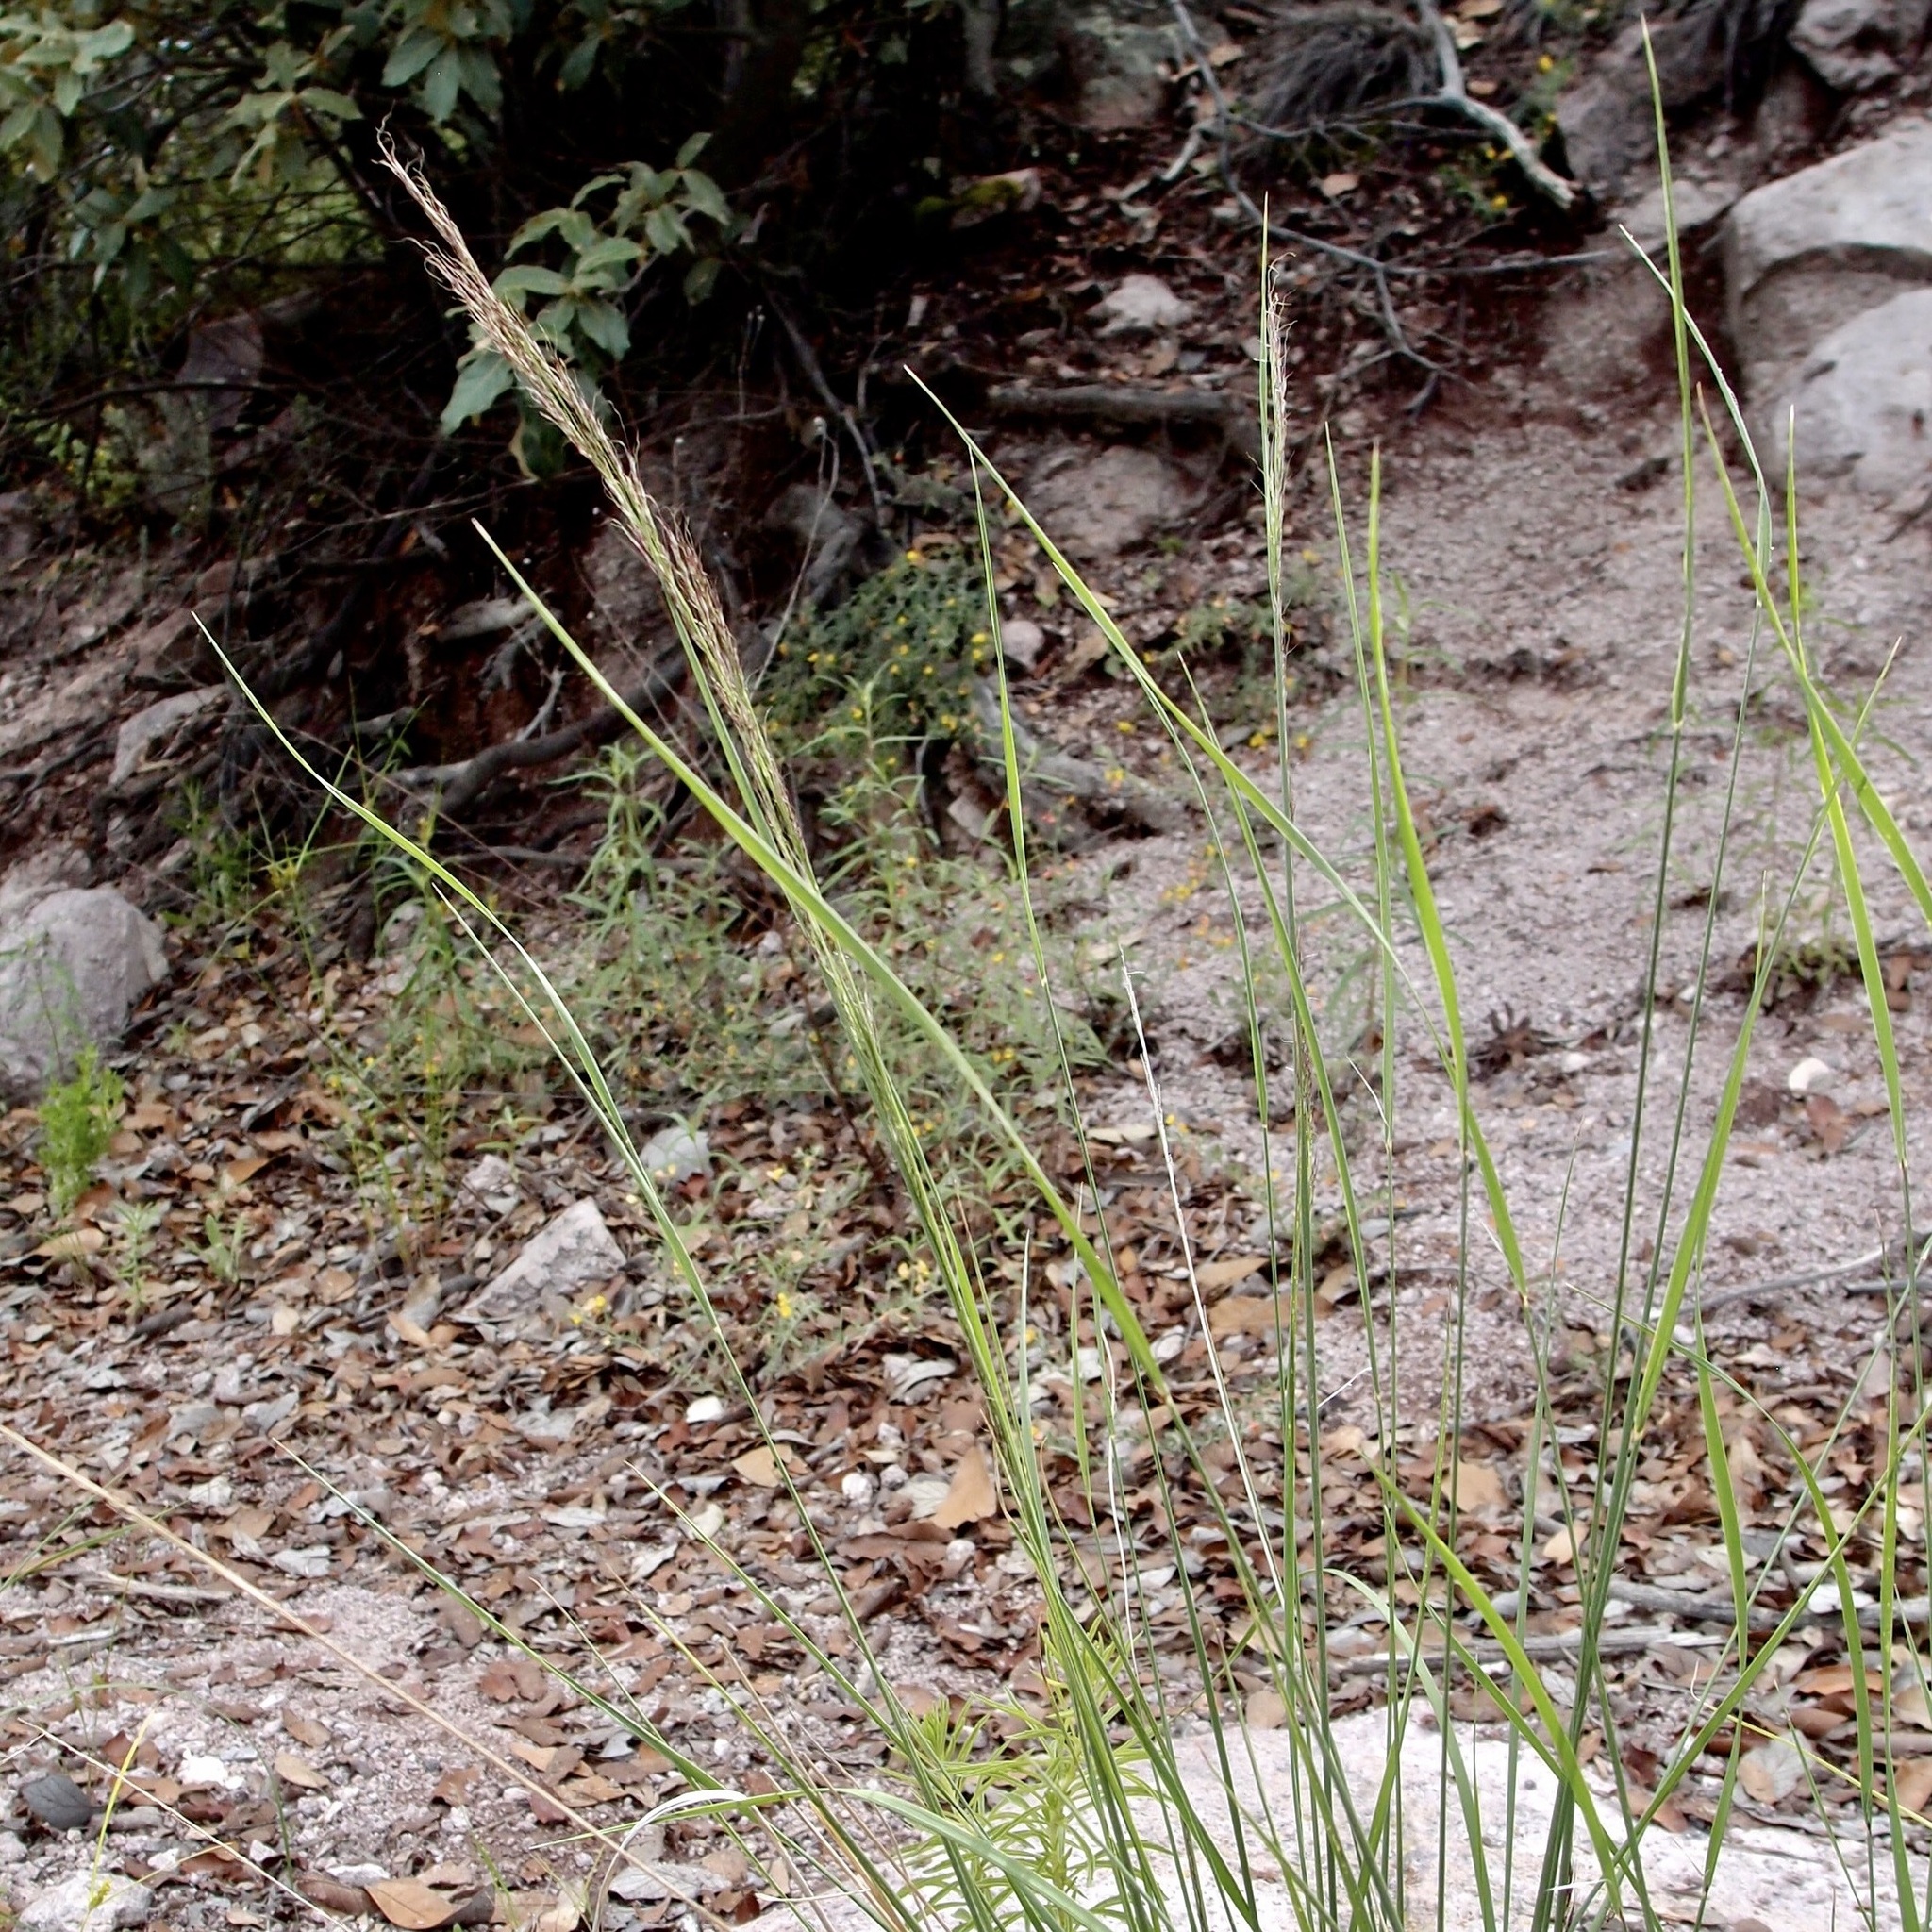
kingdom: Plantae
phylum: Tracheophyta
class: Liliopsida
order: Poales
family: Poaceae
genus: Muhlenbergia
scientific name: Muhlenbergia montana
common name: Mountain muhly
